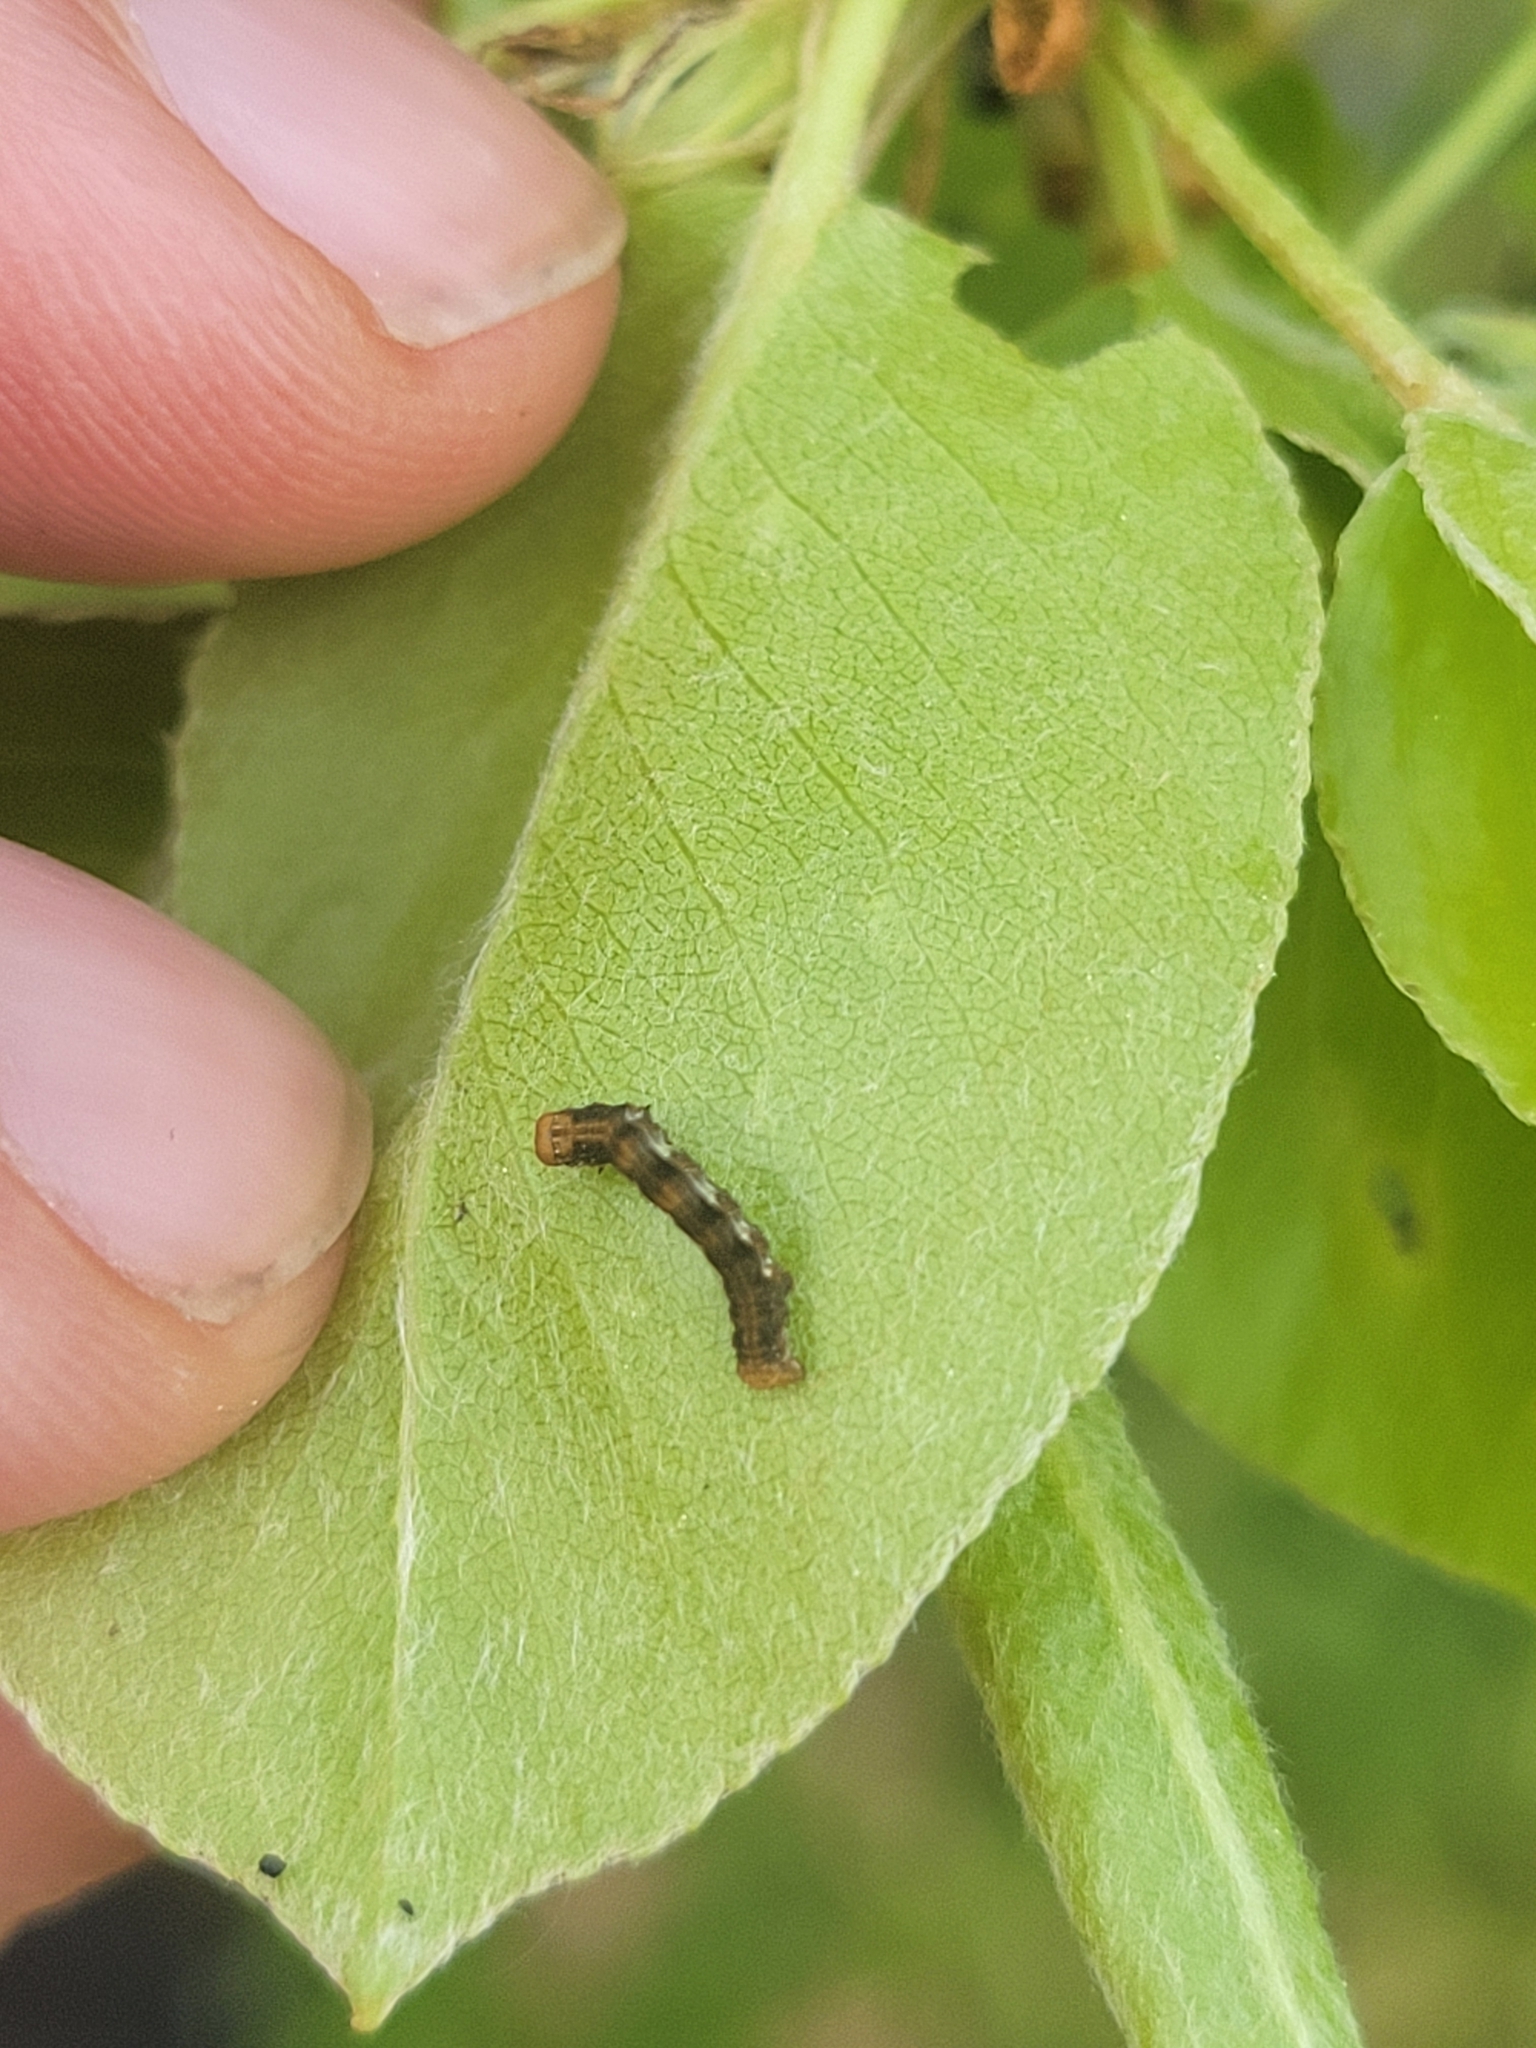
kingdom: Animalia
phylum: Arthropoda
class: Insecta
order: Lepidoptera
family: Geometridae
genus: Erannis
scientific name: Erannis defoliaria
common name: Mottled umber
